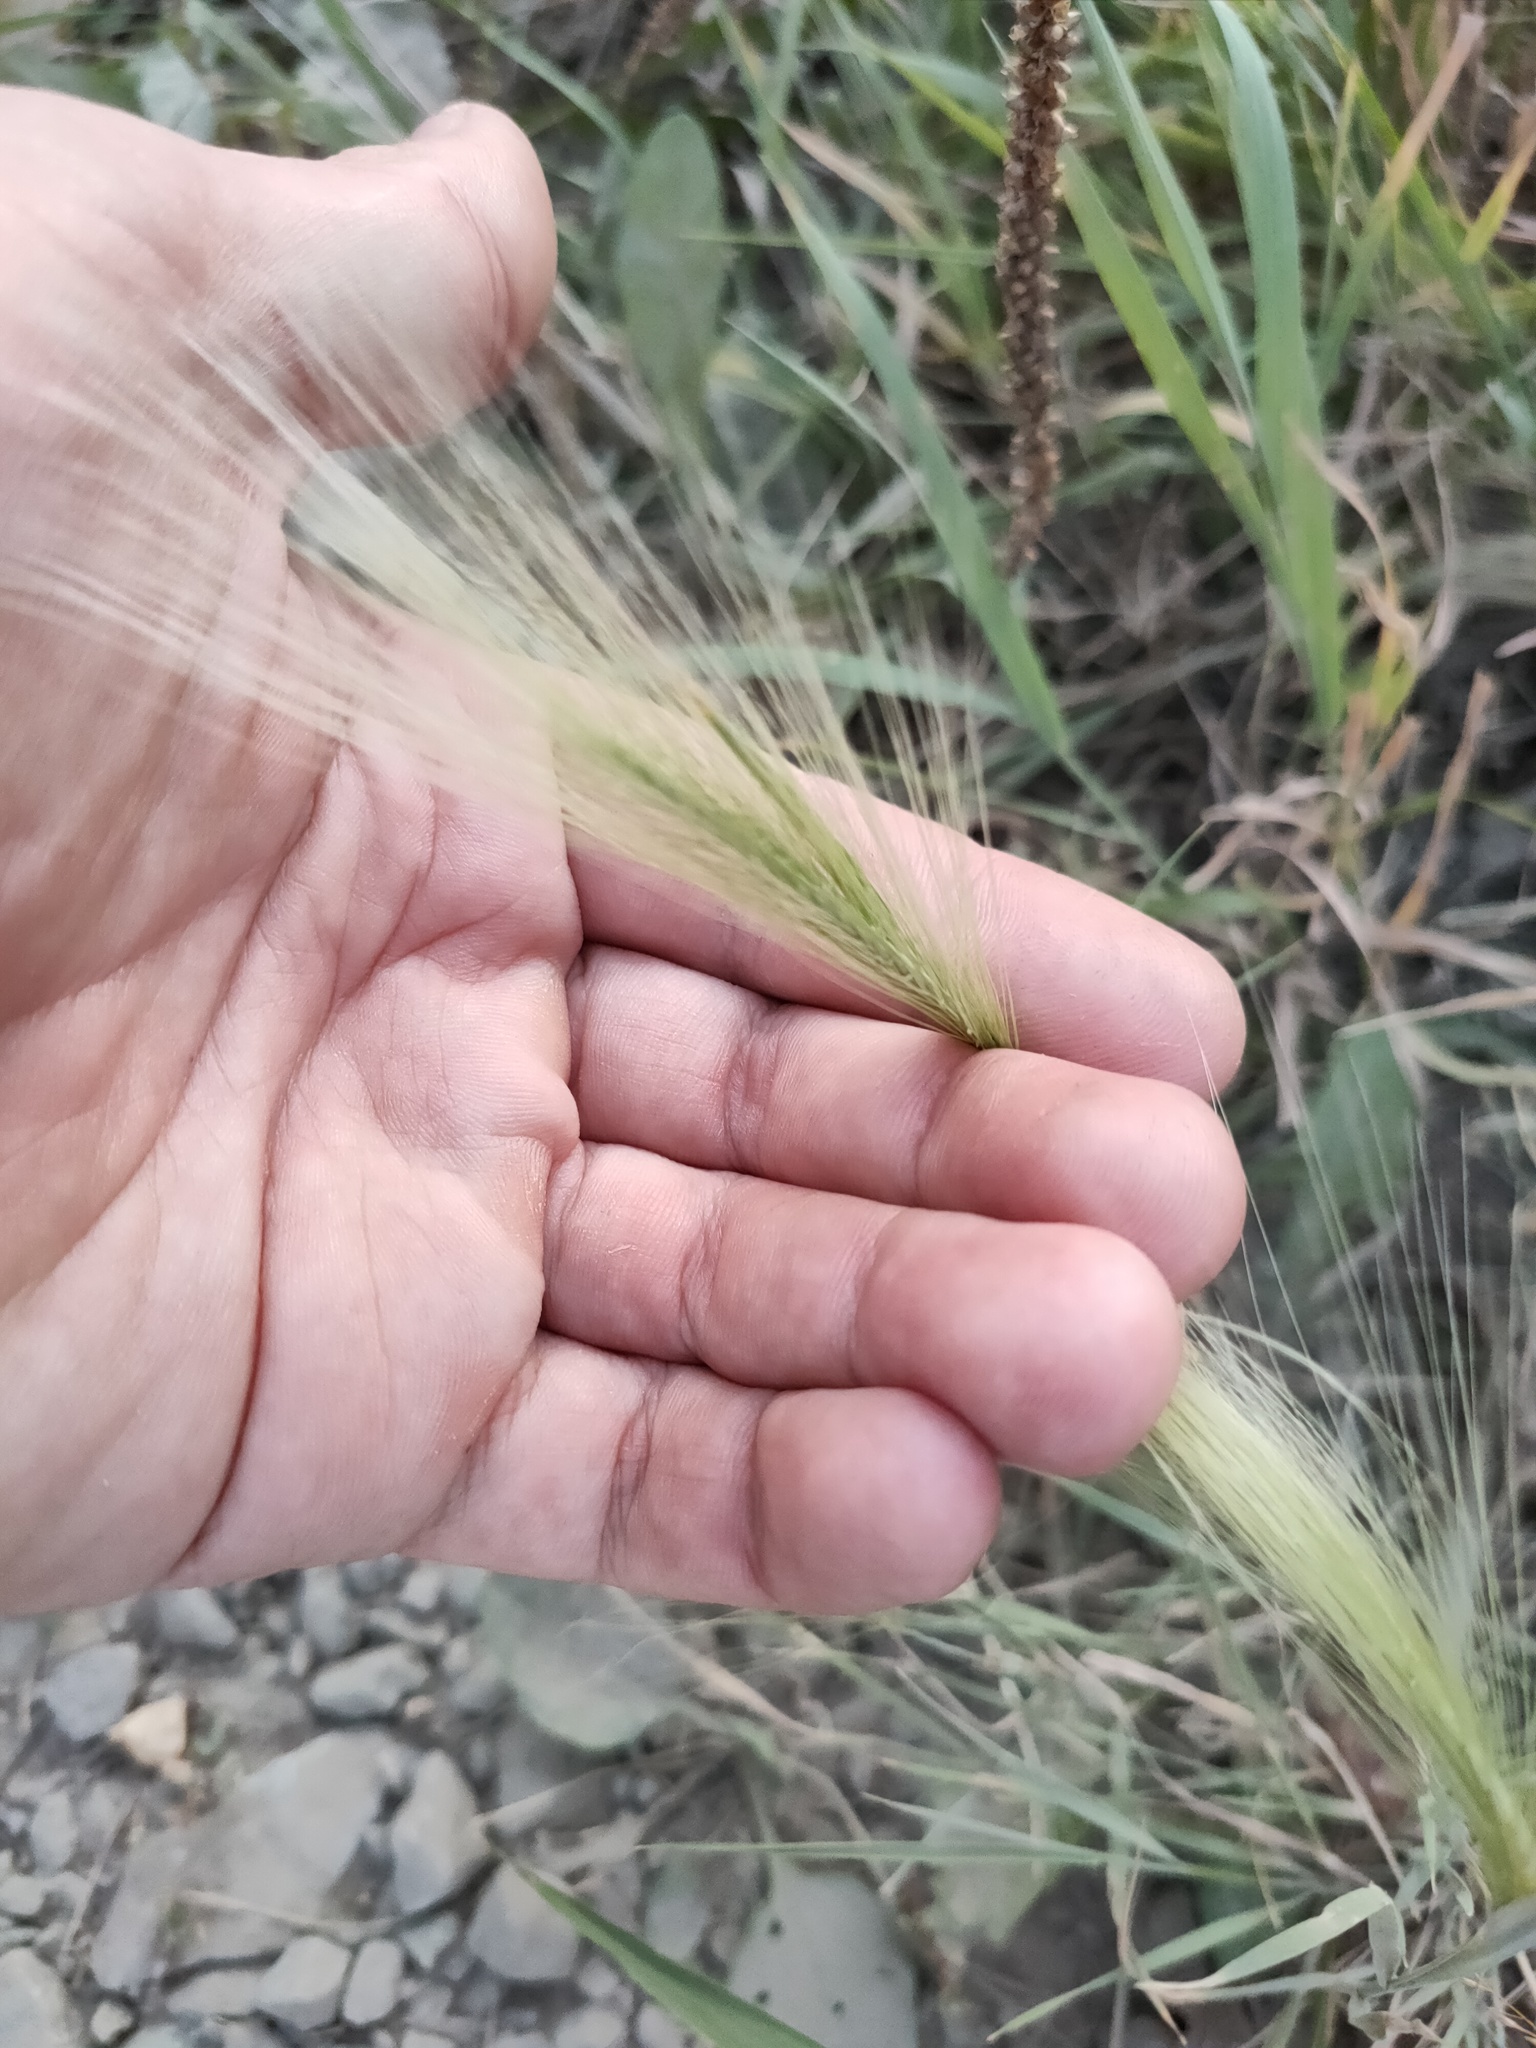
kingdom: Plantae
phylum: Tracheophyta
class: Liliopsida
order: Poales
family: Poaceae
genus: Hordeum
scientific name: Hordeum jubatum
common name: Foxtail barley
